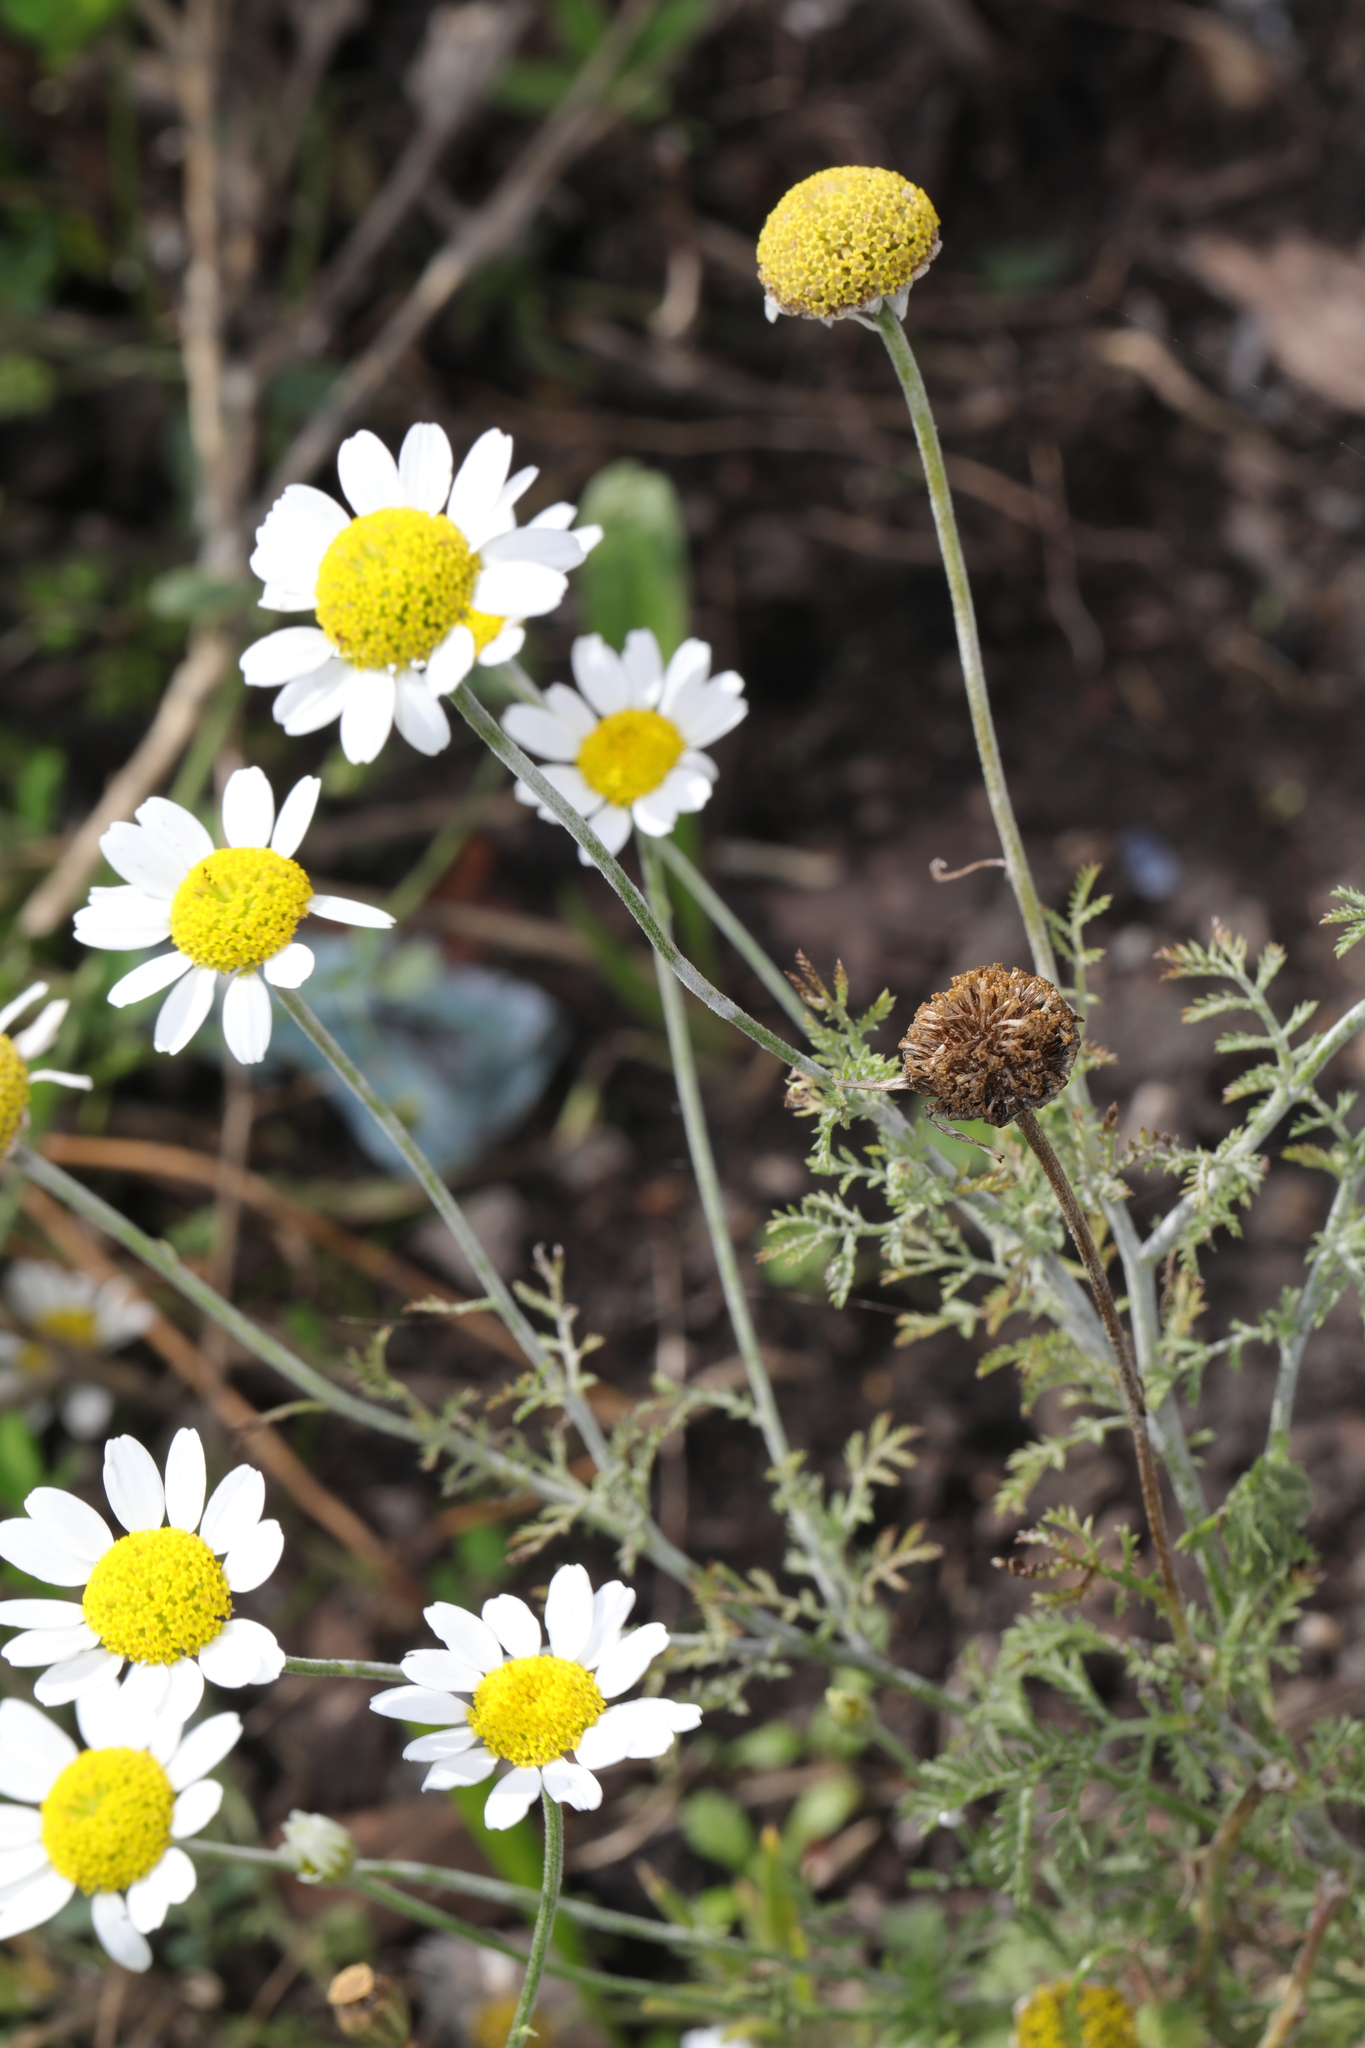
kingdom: Plantae
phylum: Tracheophyta
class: Magnoliopsida
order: Asterales
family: Asteraceae
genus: Cota
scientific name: Cota austriaca
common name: Austrian chamomile
